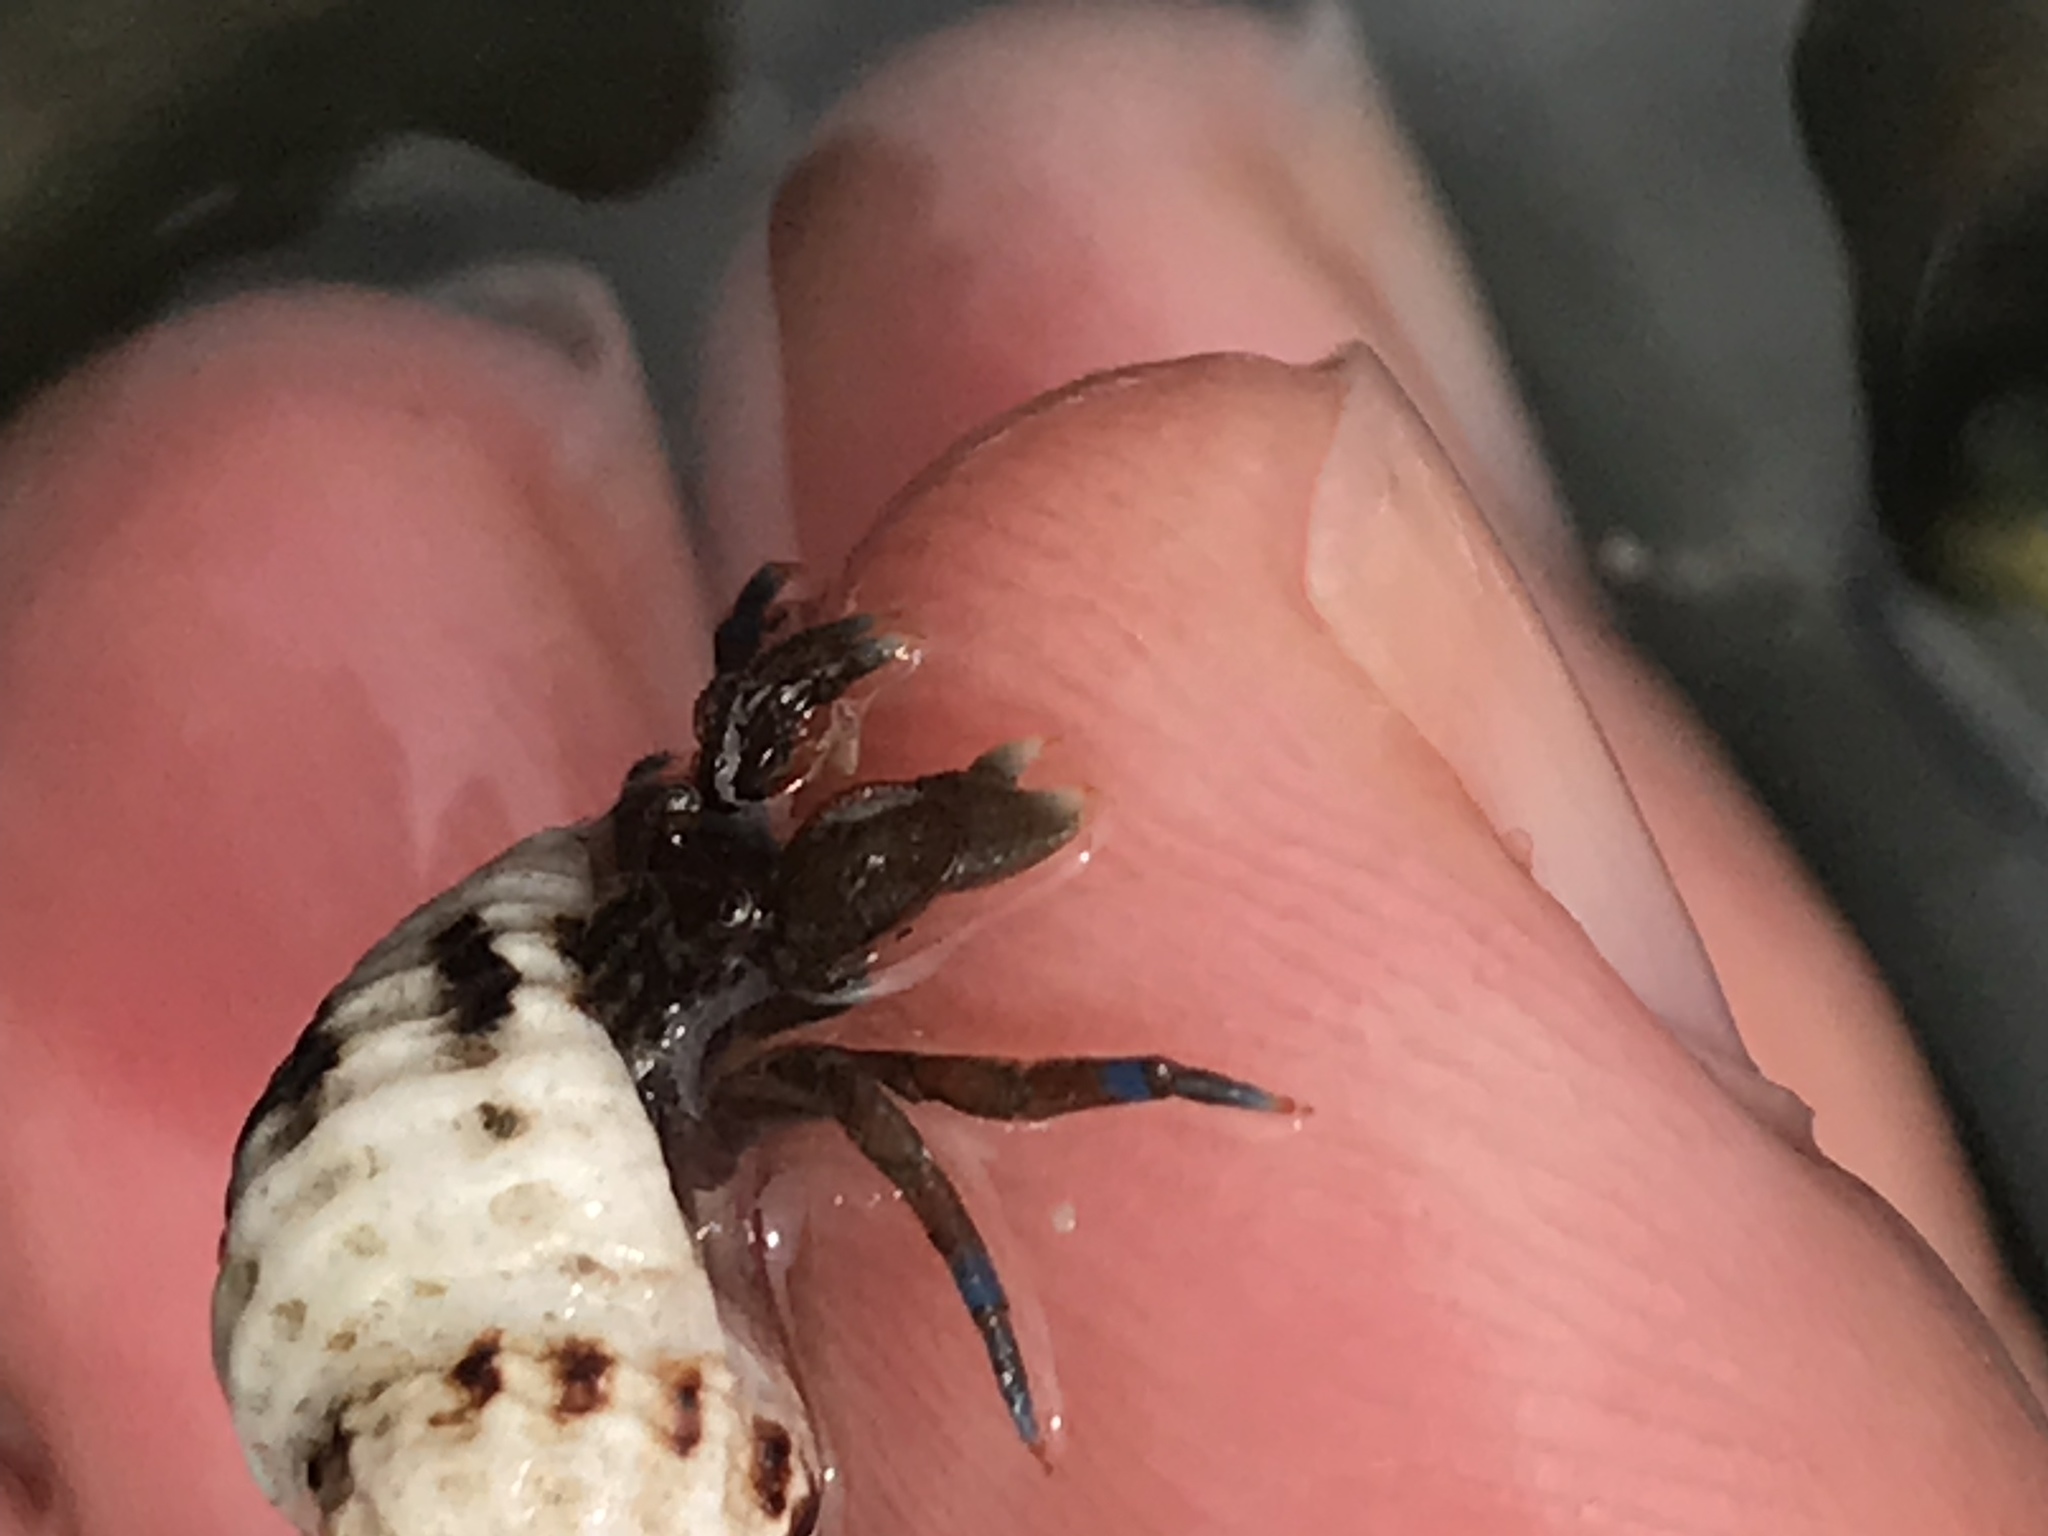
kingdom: Animalia
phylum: Arthropoda
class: Malacostraca
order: Decapoda
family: Paguridae
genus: Pagurus
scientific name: Pagurus samuelis
